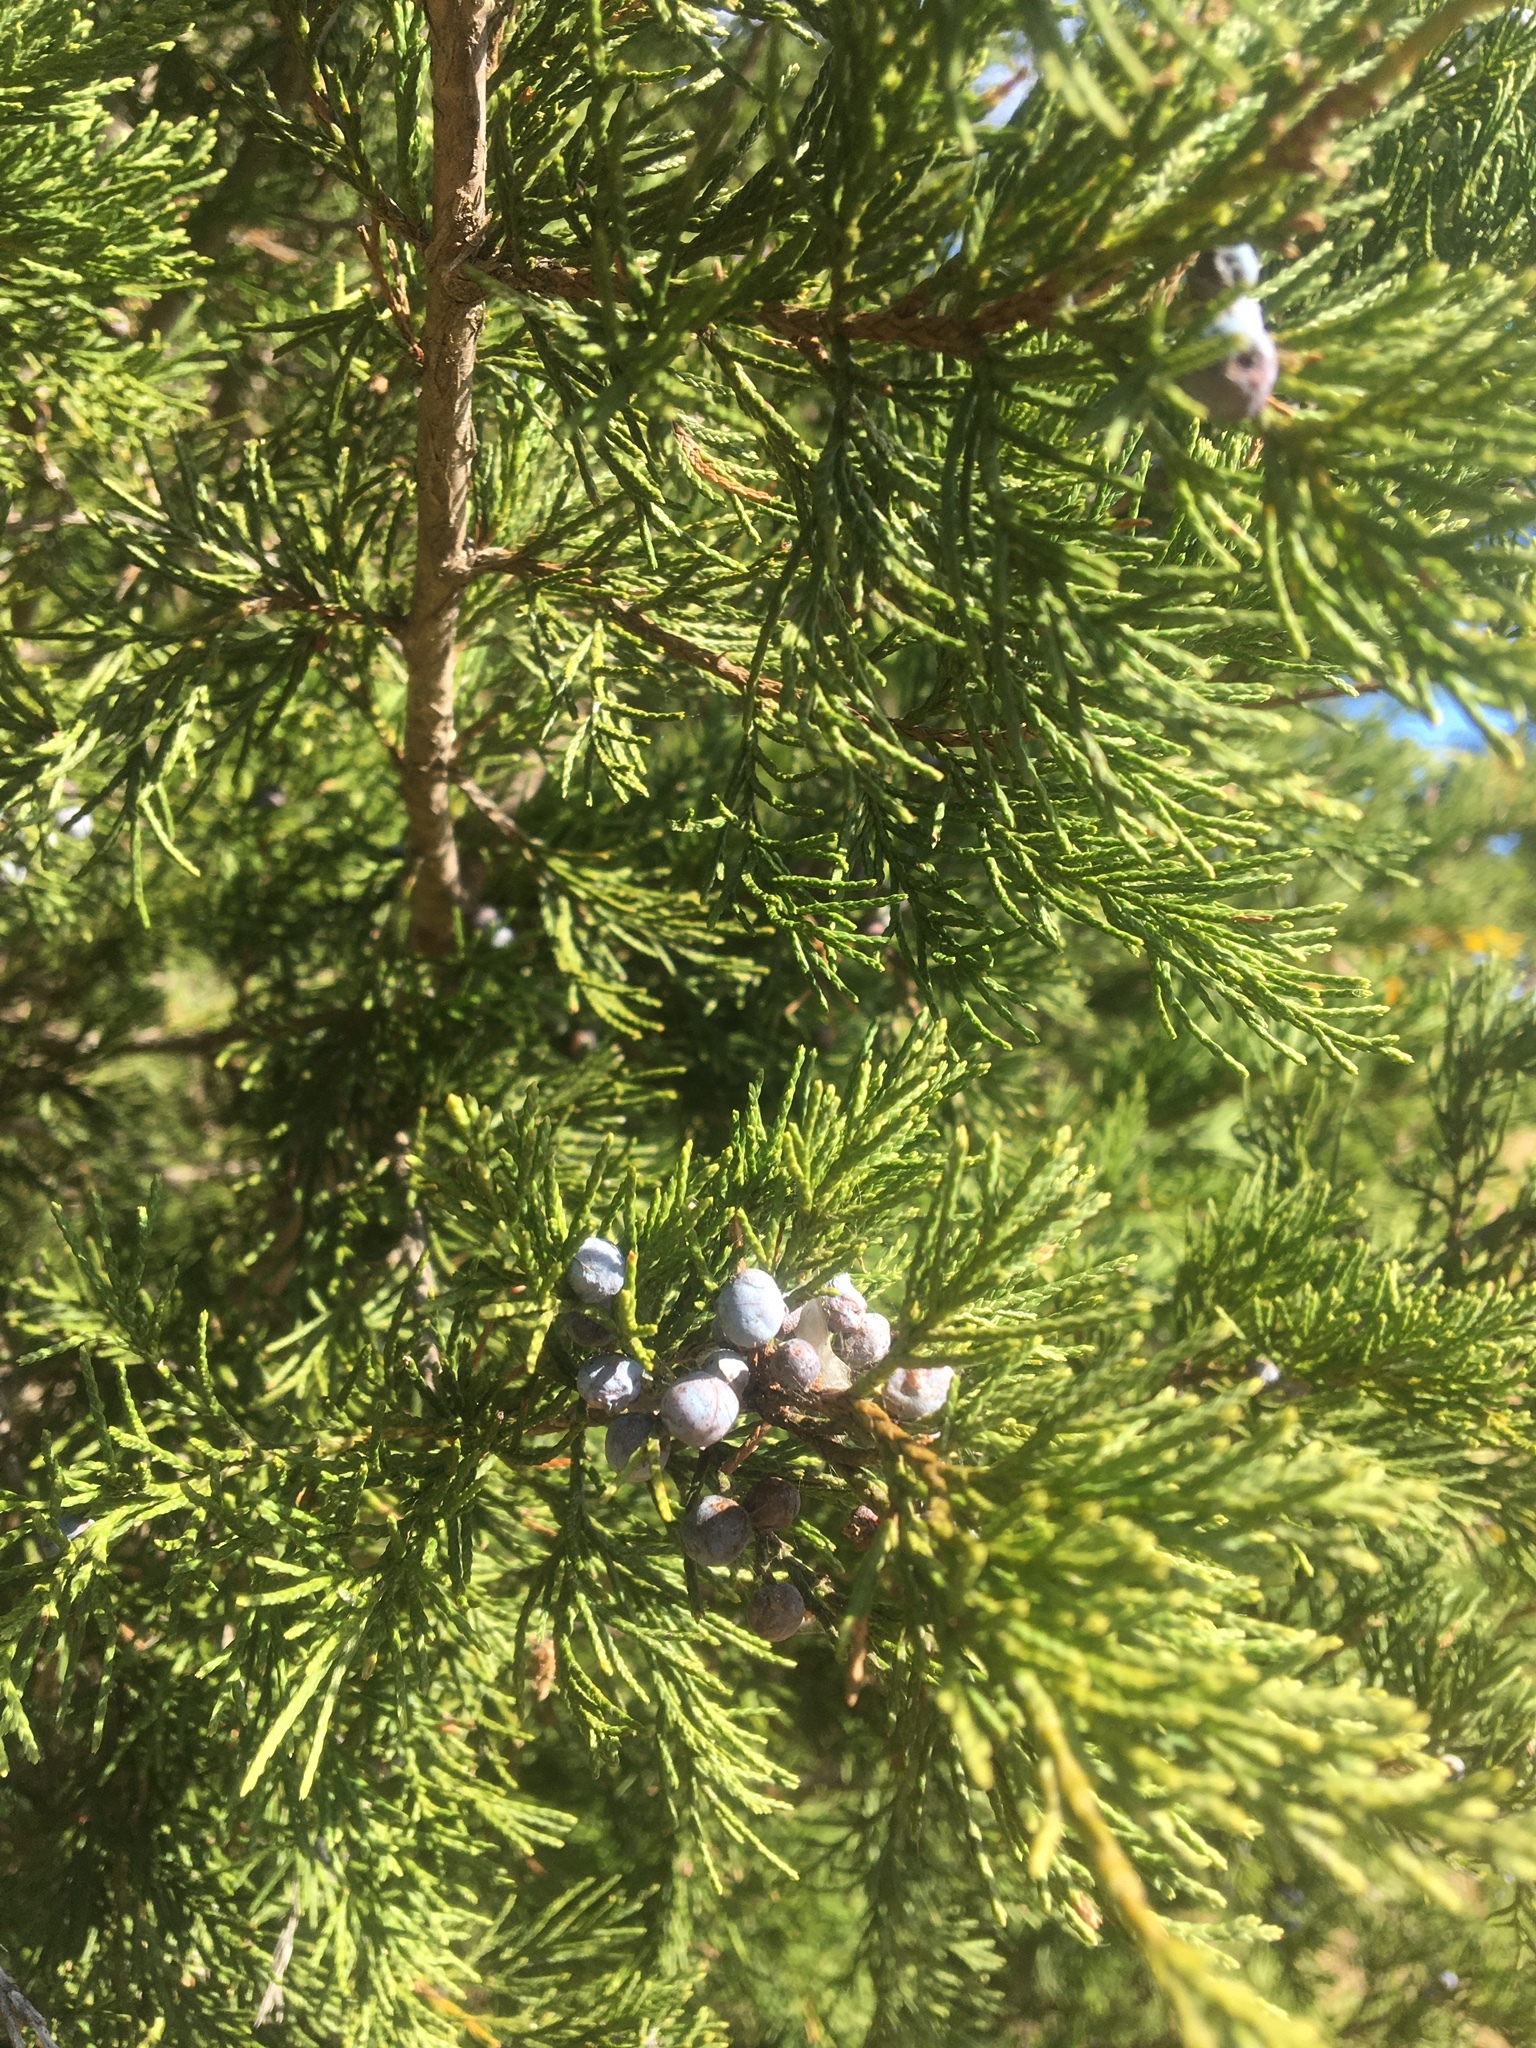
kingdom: Plantae
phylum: Tracheophyta
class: Pinopsida
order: Pinales
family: Cupressaceae
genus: Juniperus
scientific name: Juniperus virginiana
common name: Red juniper
